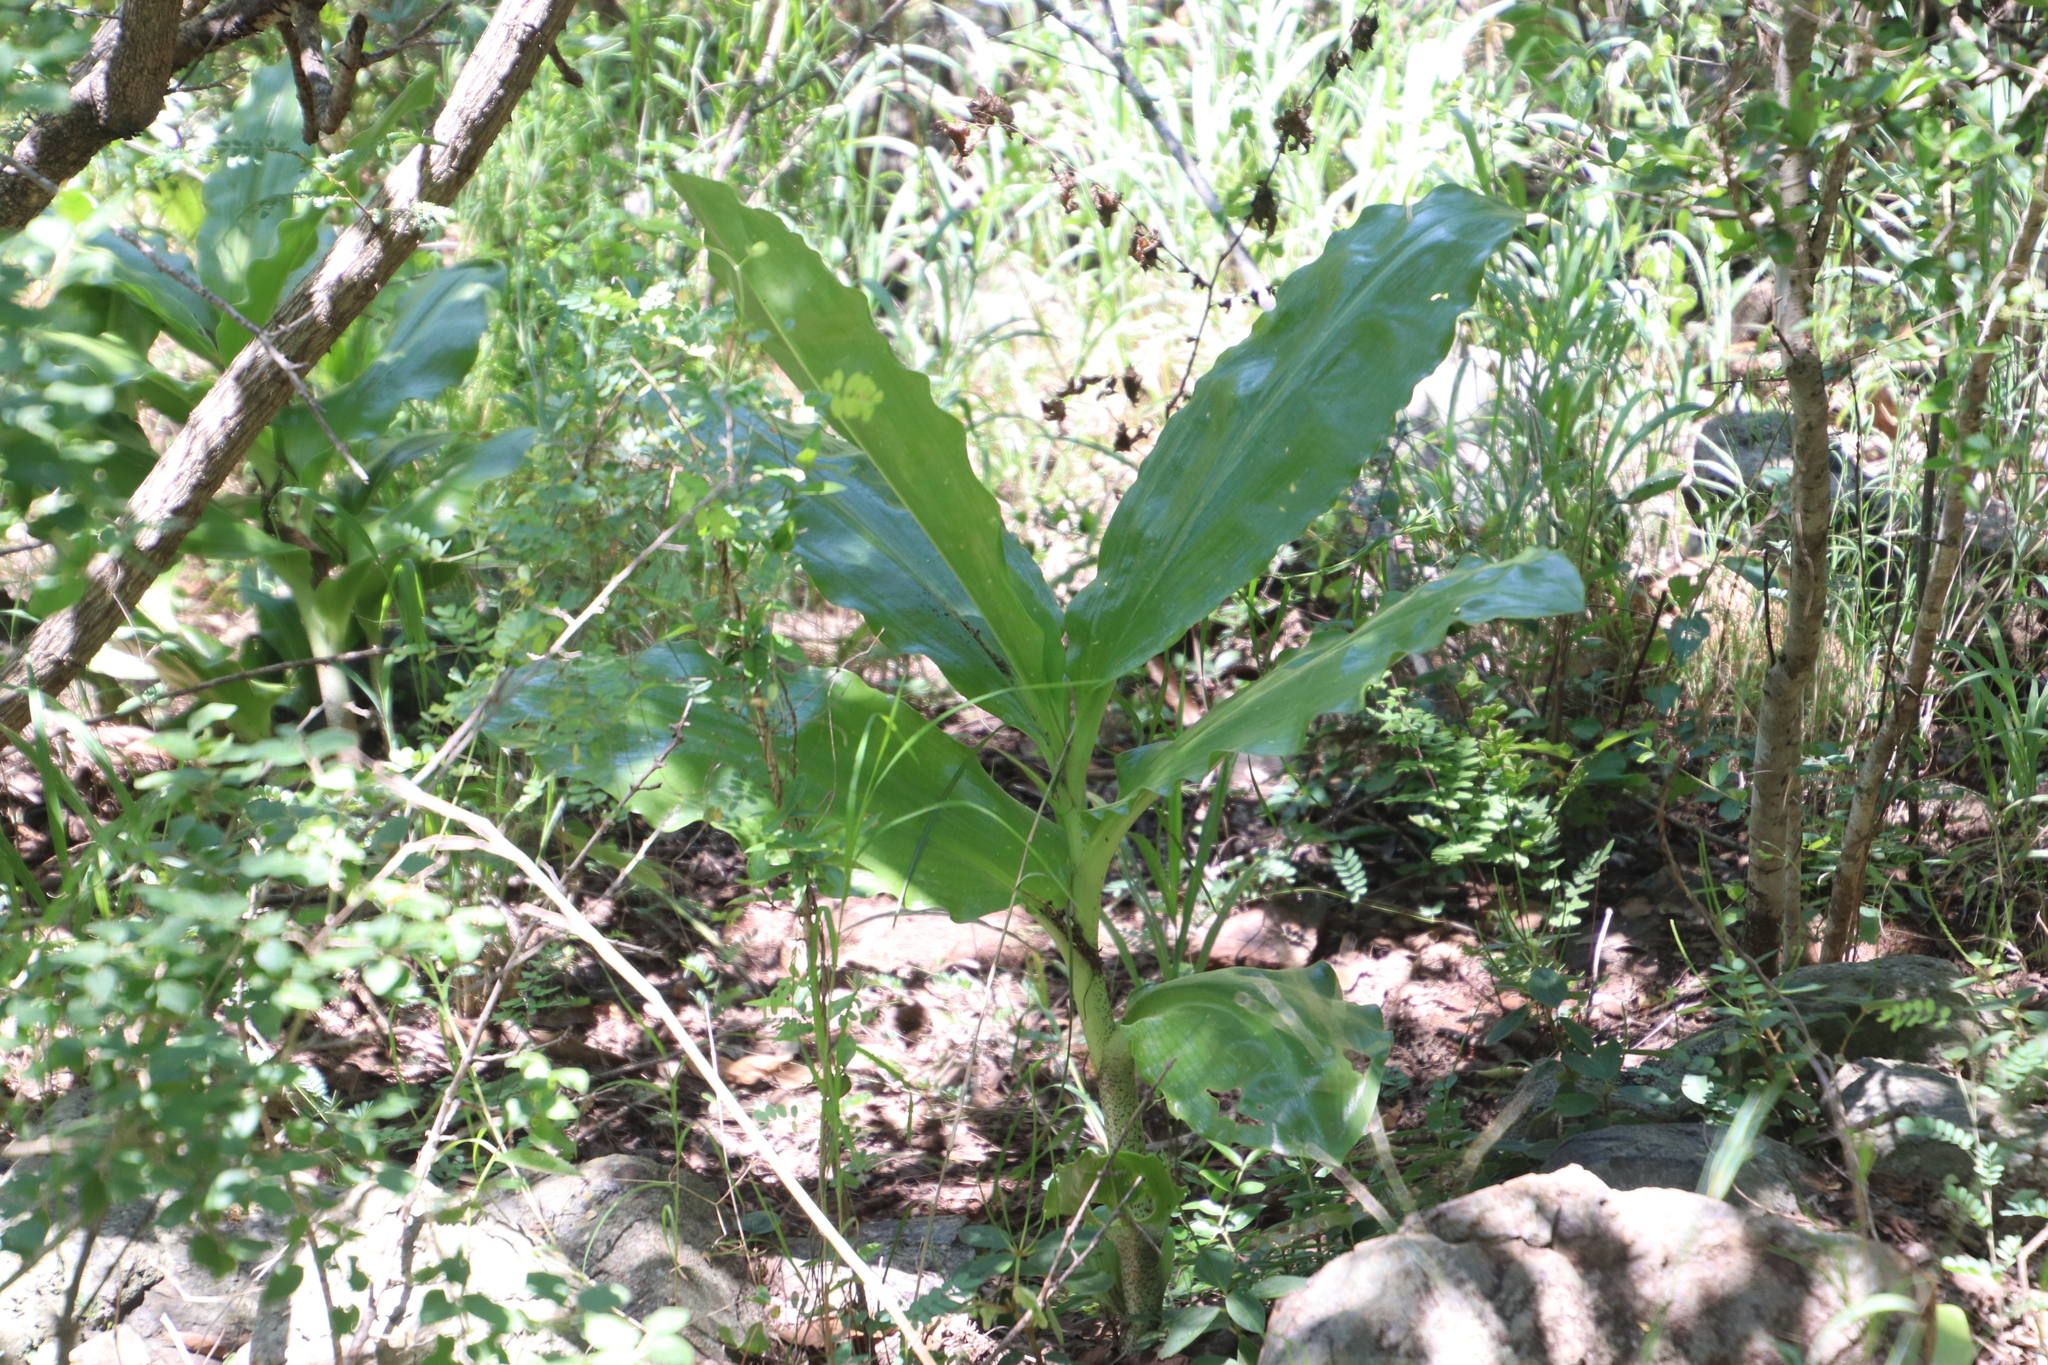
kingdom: Plantae
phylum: Tracheophyta
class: Liliopsida
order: Asparagales
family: Amaryllidaceae
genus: Scadoxus
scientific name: Scadoxus puniceus
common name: Royal-paintbrush
